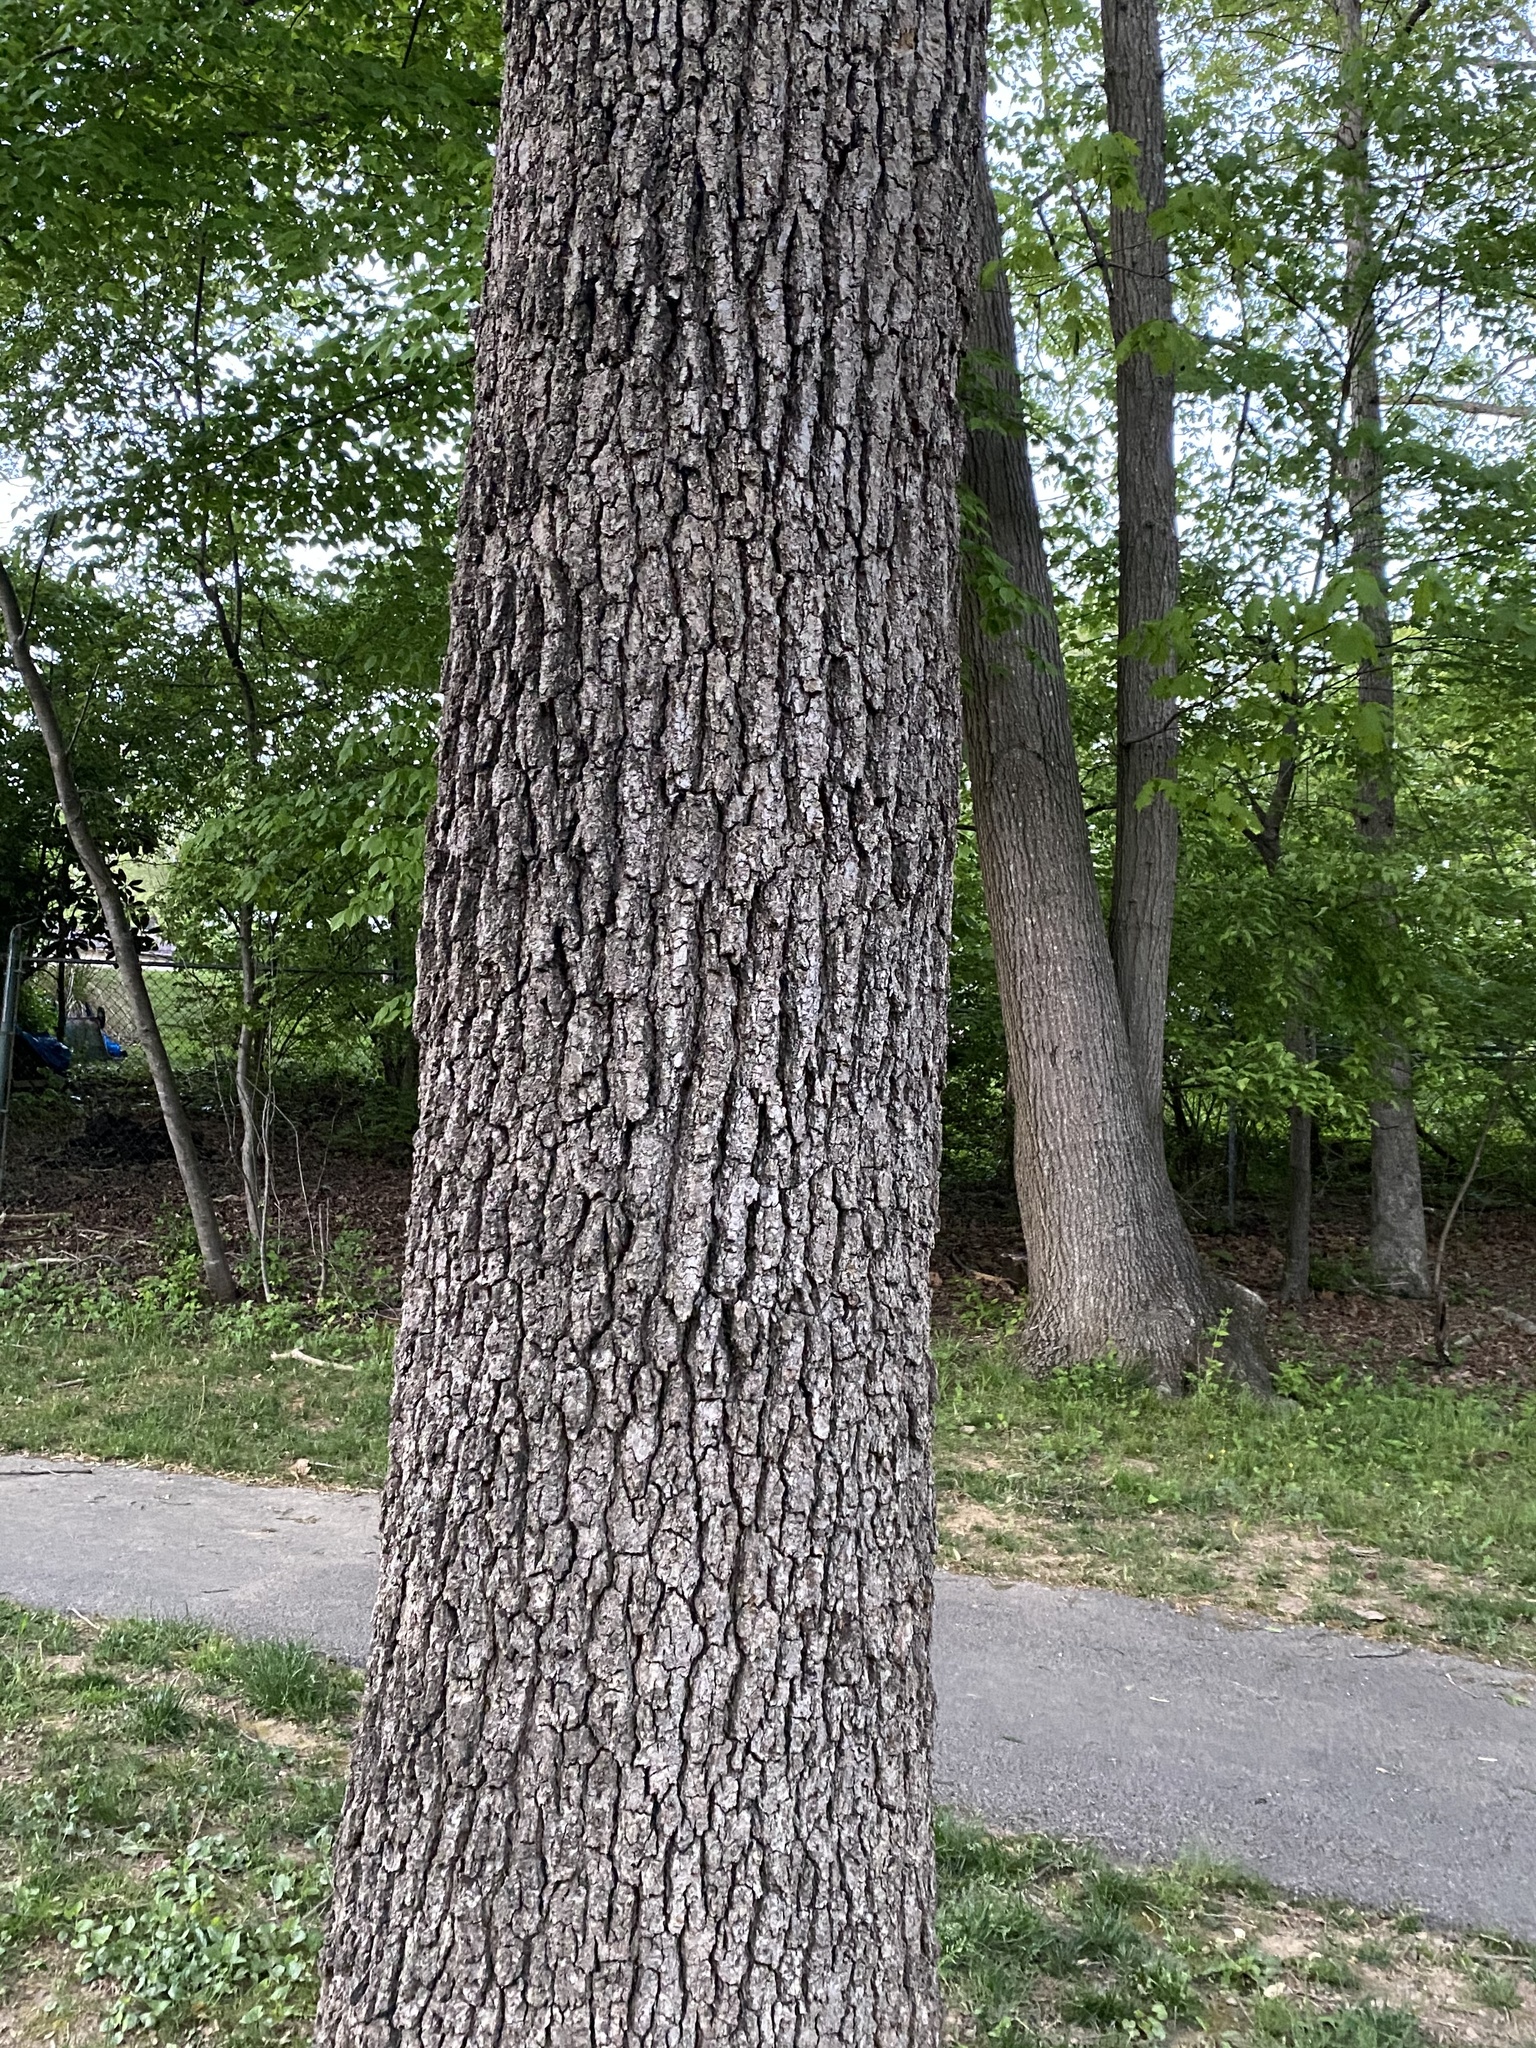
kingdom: Plantae
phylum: Tracheophyta
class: Magnoliopsida
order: Cornales
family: Nyssaceae
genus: Nyssa
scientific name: Nyssa sylvatica
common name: Black tupelo
